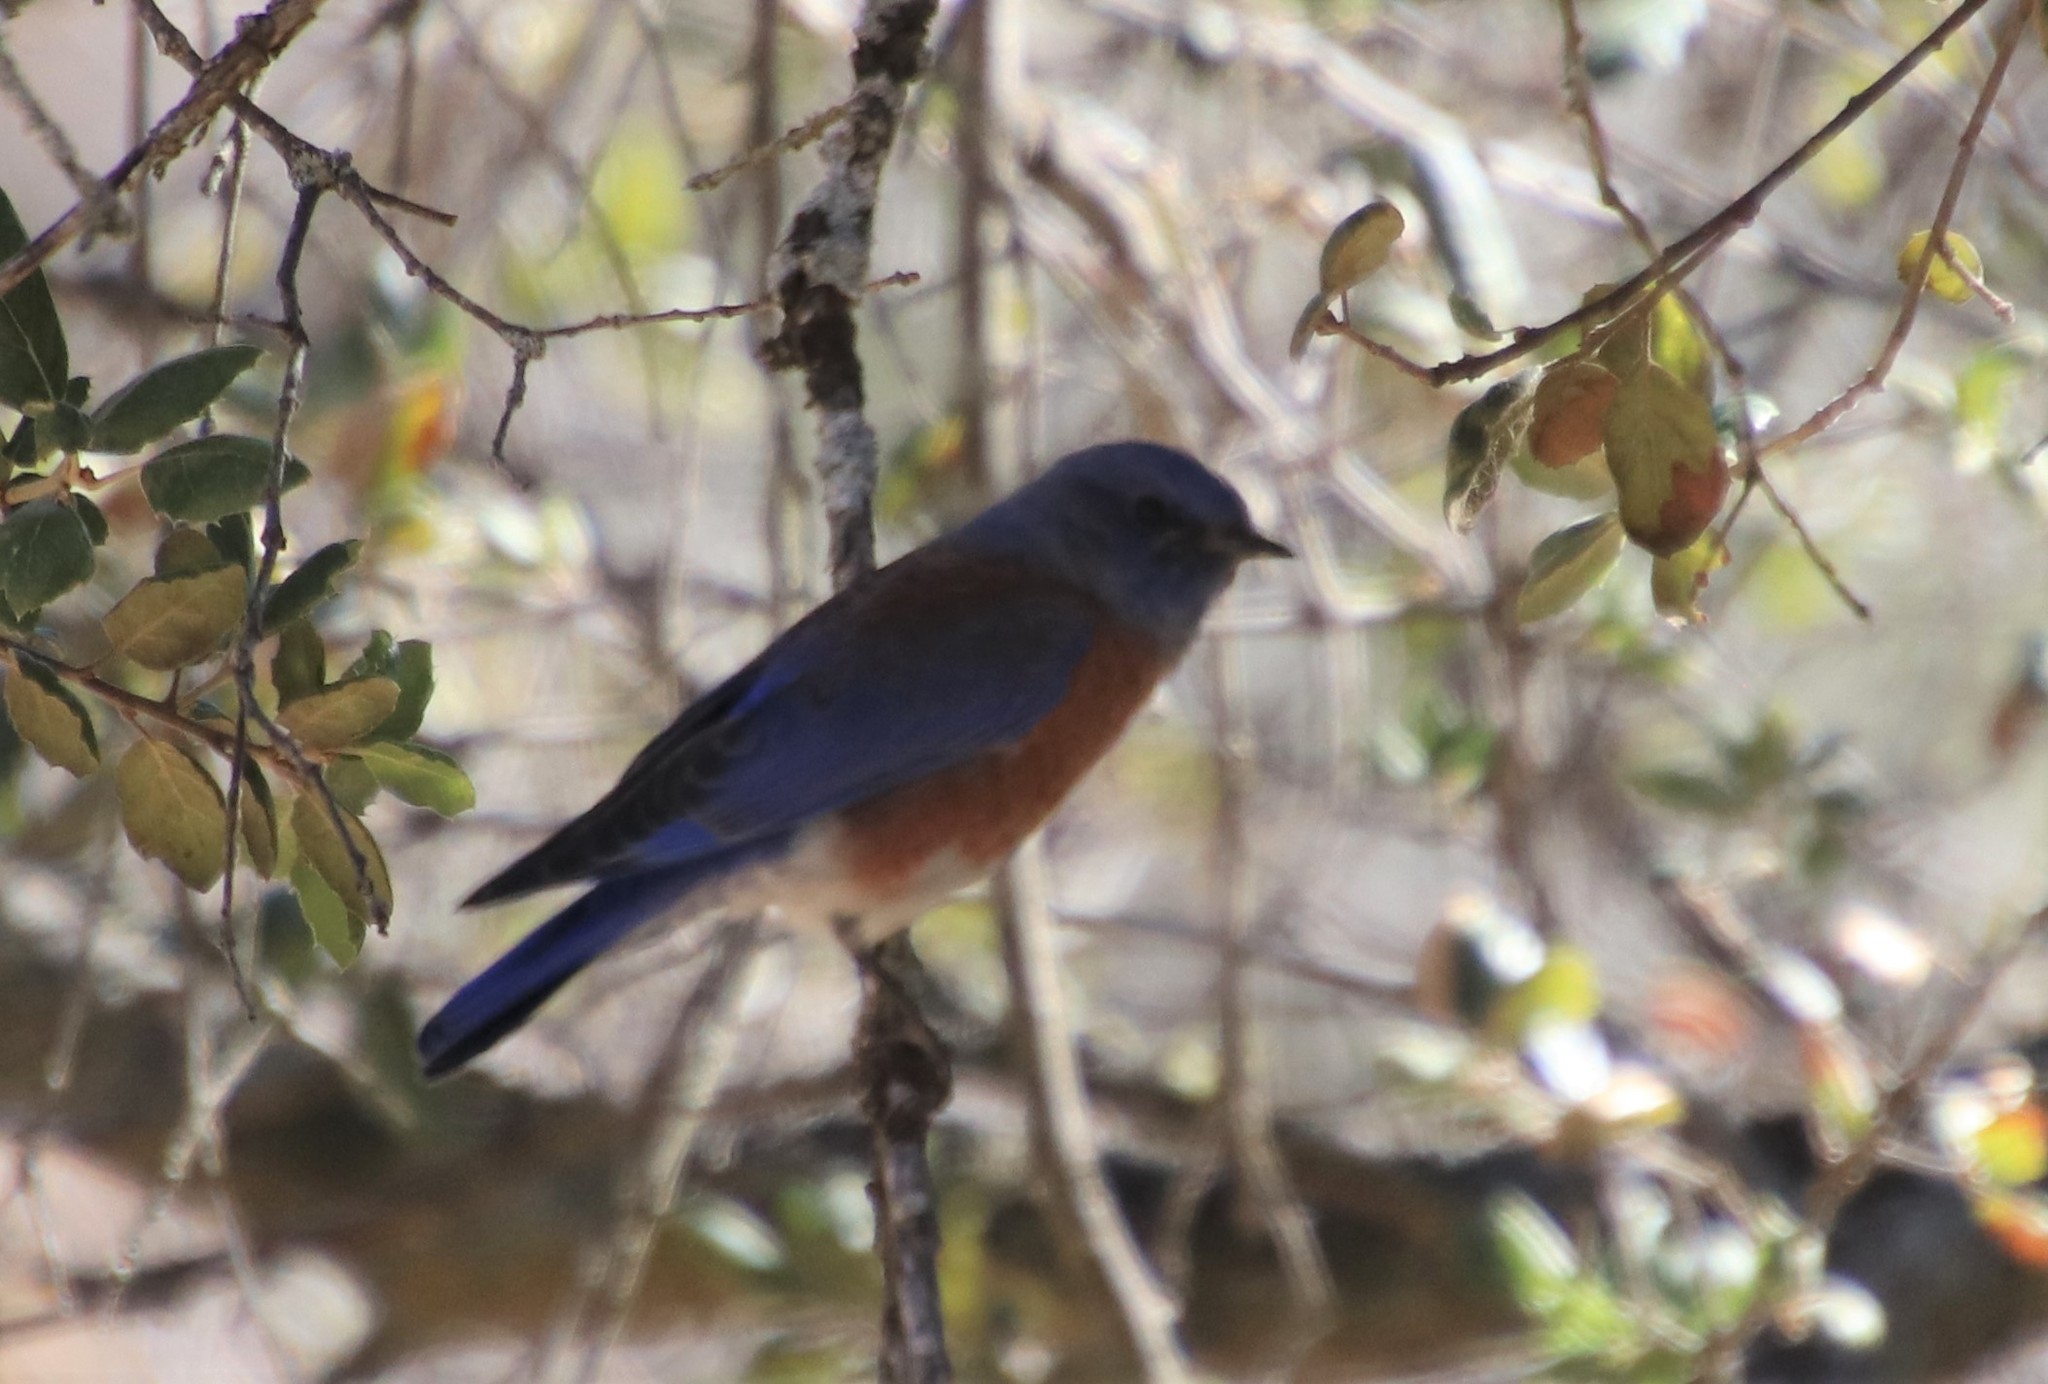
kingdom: Animalia
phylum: Chordata
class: Aves
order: Passeriformes
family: Turdidae
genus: Sialia
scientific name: Sialia mexicana
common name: Western bluebird
